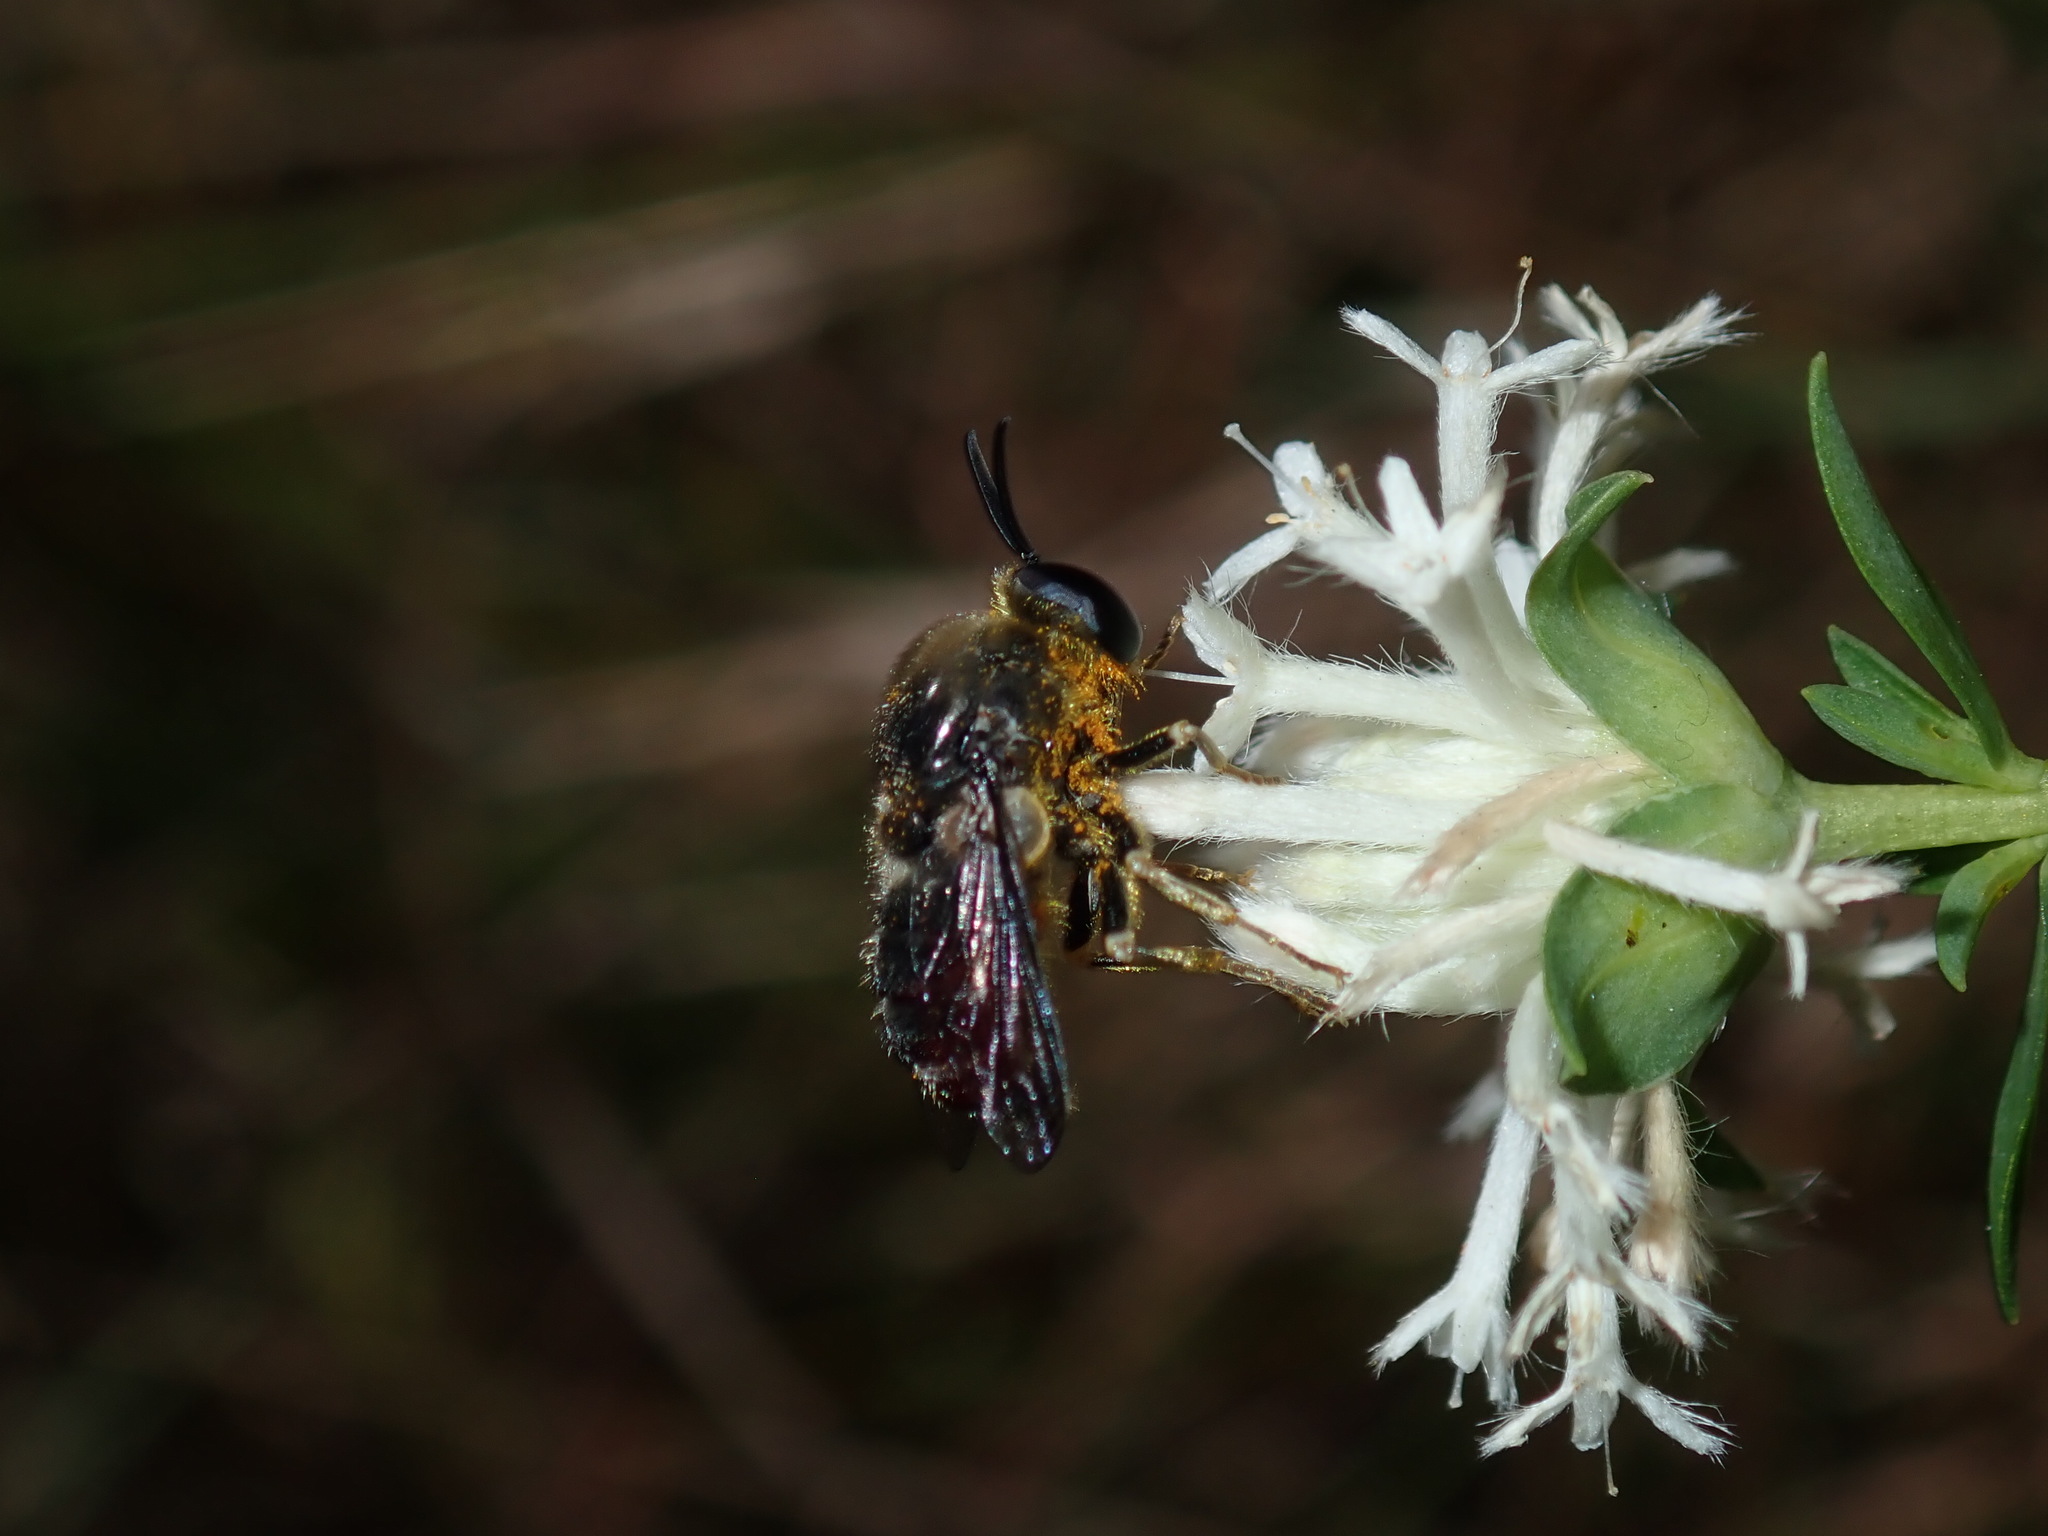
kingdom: Animalia
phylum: Arthropoda
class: Insecta
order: Diptera
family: Acroceridae
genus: Panops
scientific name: Panops baudini
